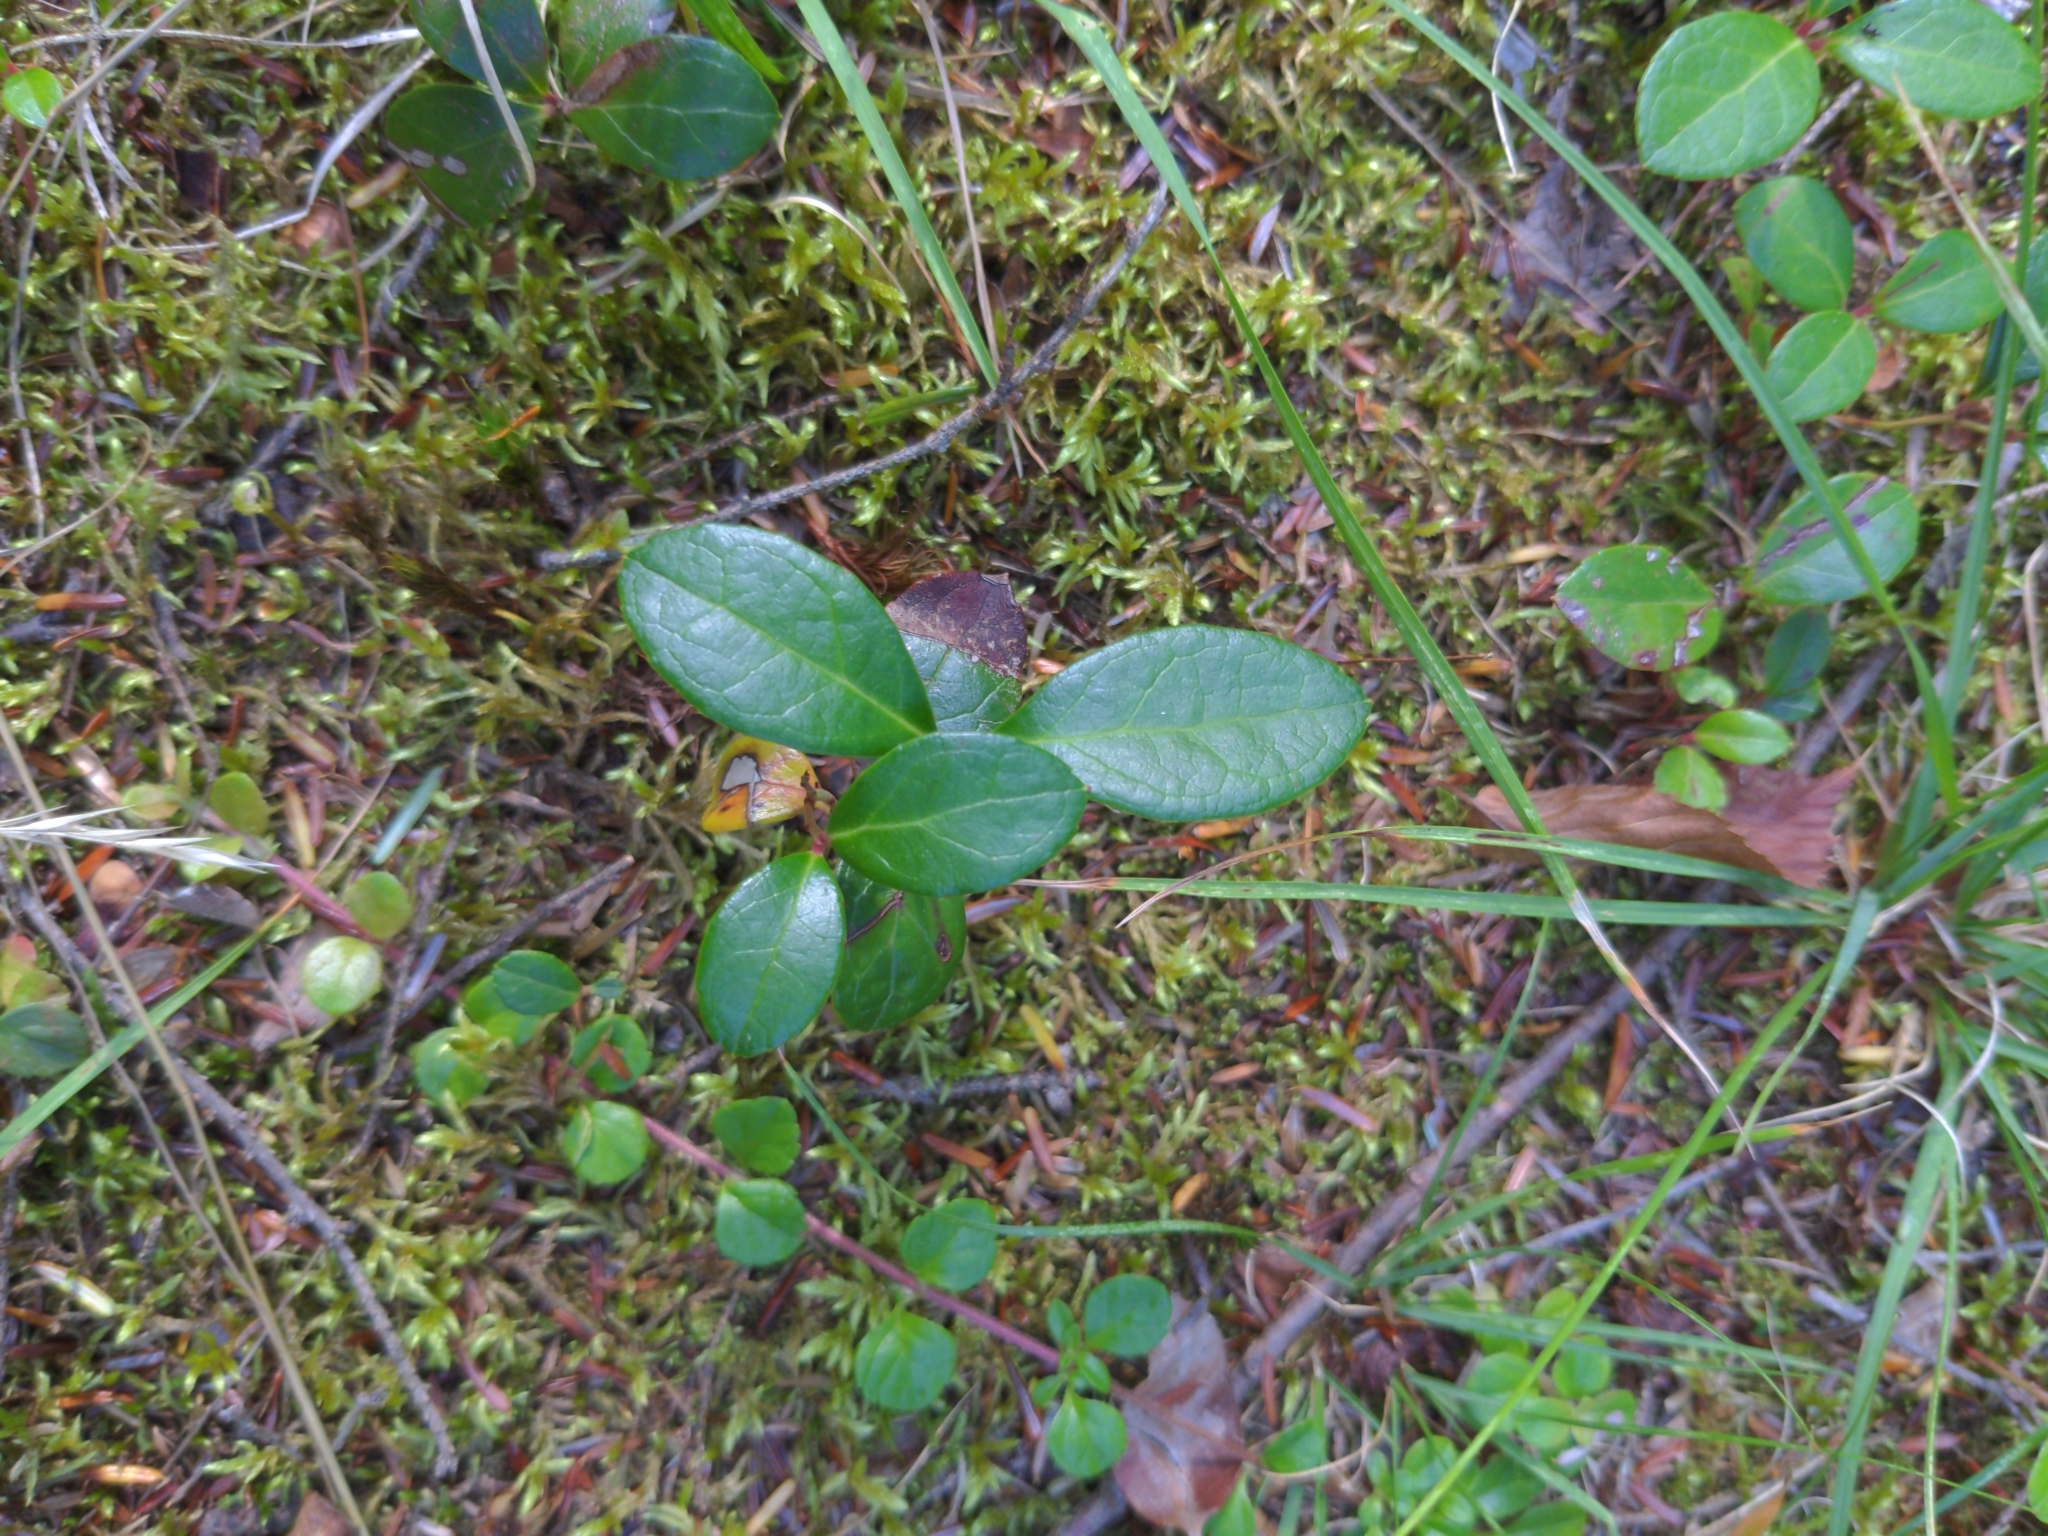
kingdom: Plantae
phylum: Tracheophyta
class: Magnoliopsida
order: Ericales
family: Ericaceae
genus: Gaultheria
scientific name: Gaultheria procumbens
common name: Checkerberry
